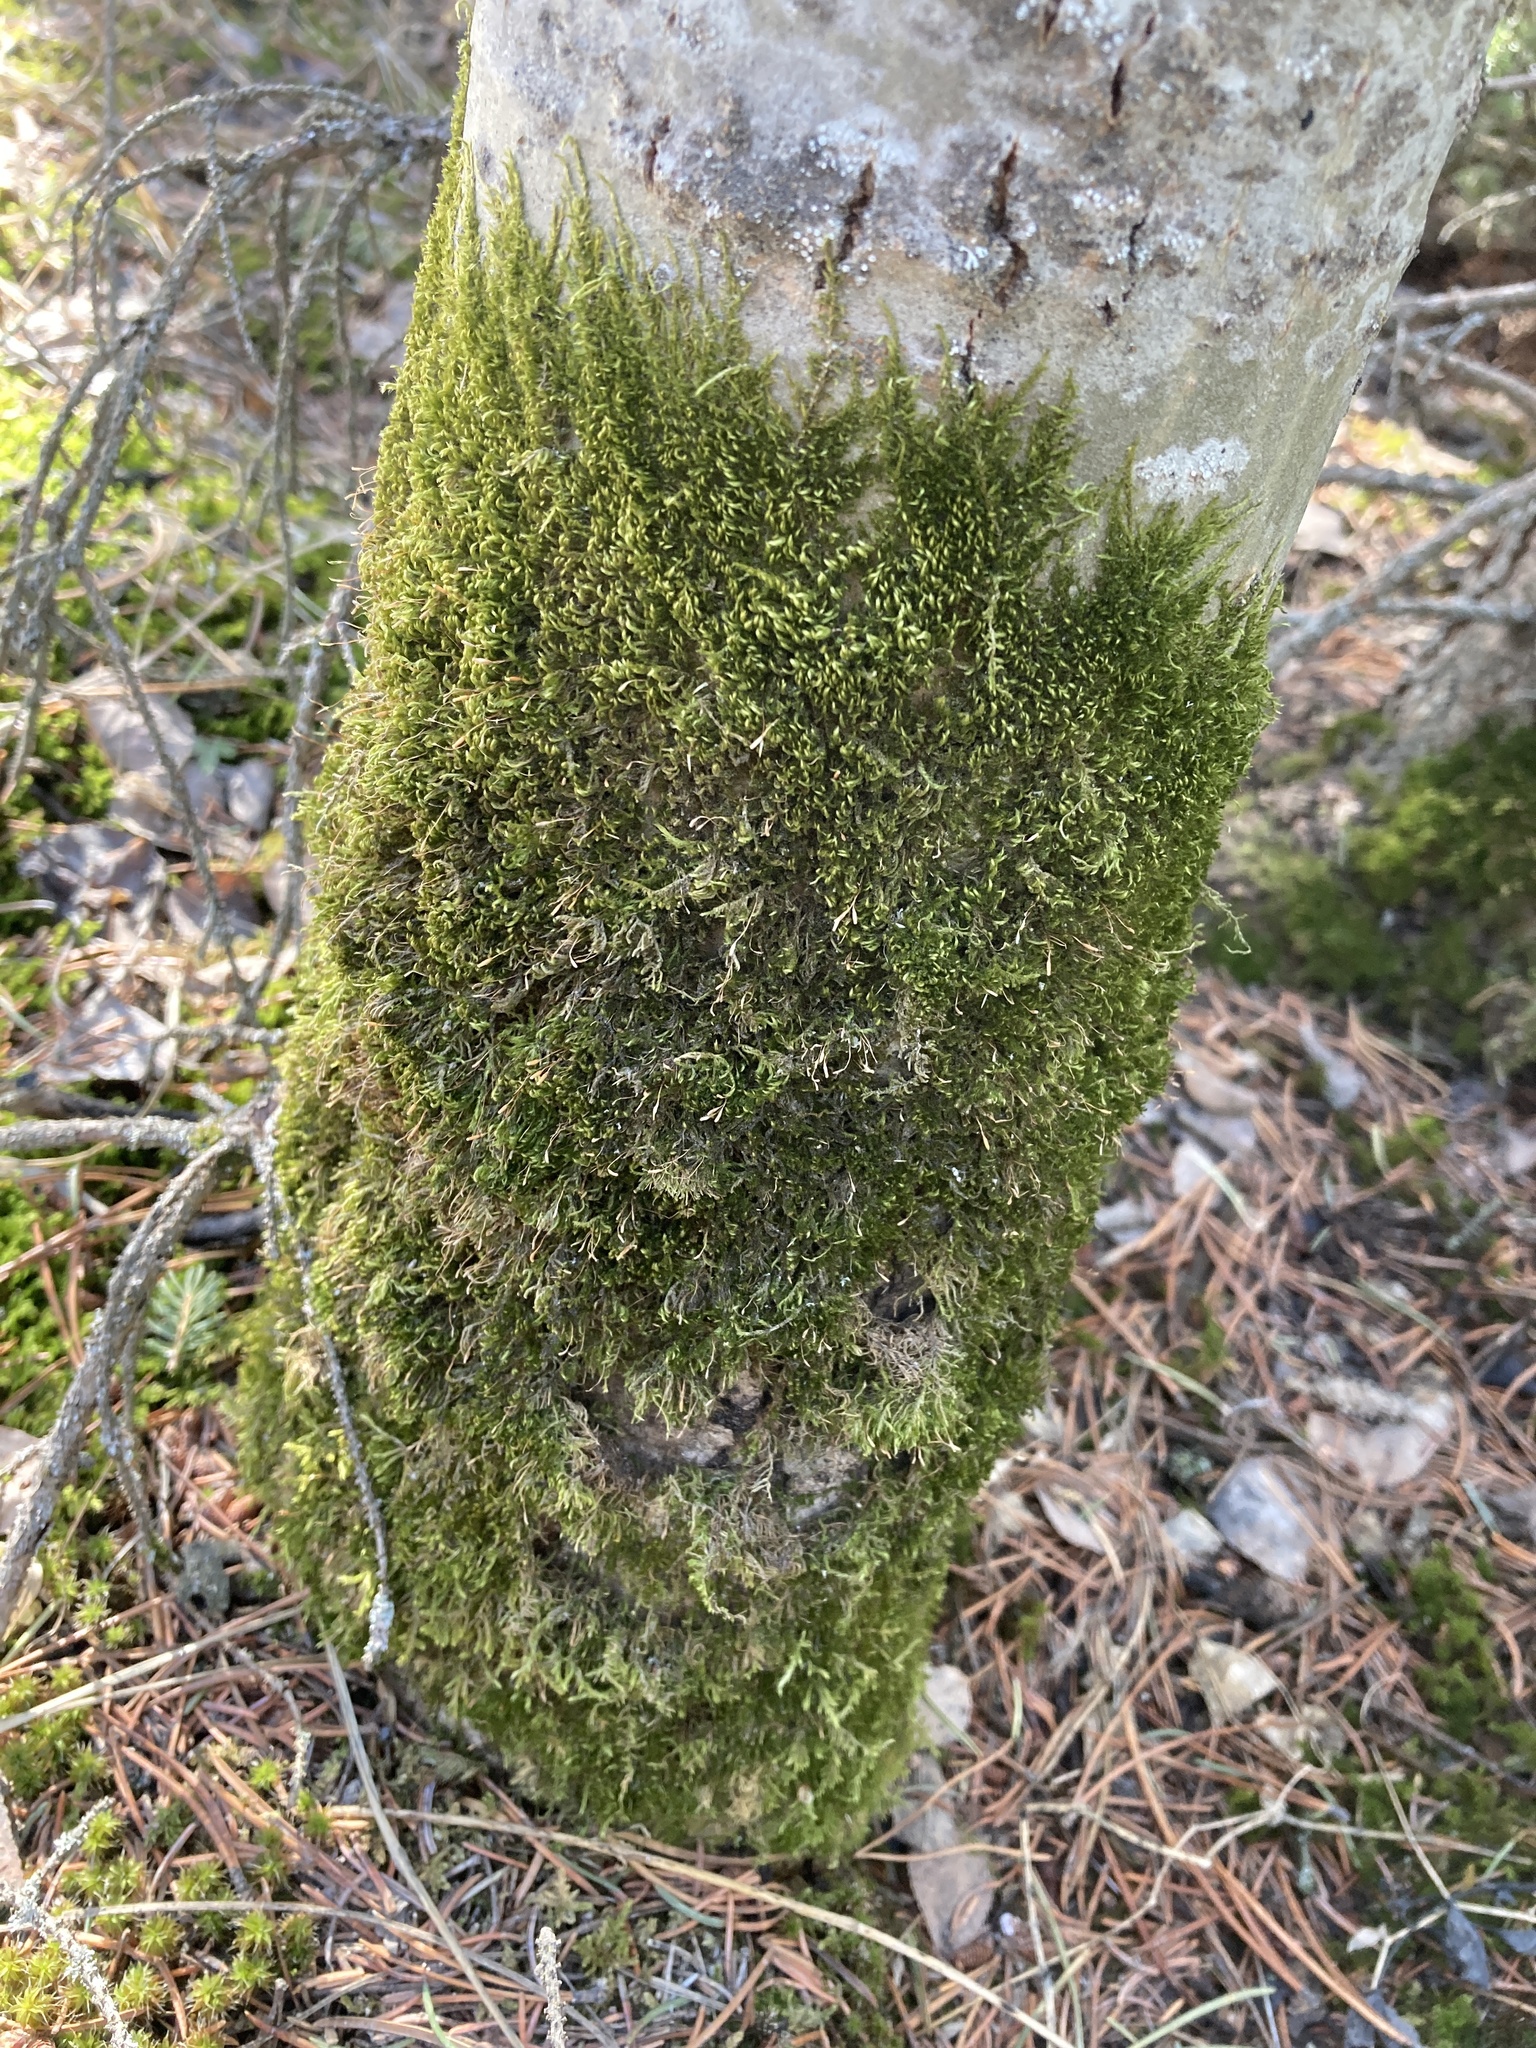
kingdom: Plantae
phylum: Bryophyta
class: Bryopsida
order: Hypnales
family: Pylaisiaceae
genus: Pylaisia
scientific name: Pylaisia polyantha
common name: Many-flowered leskea
